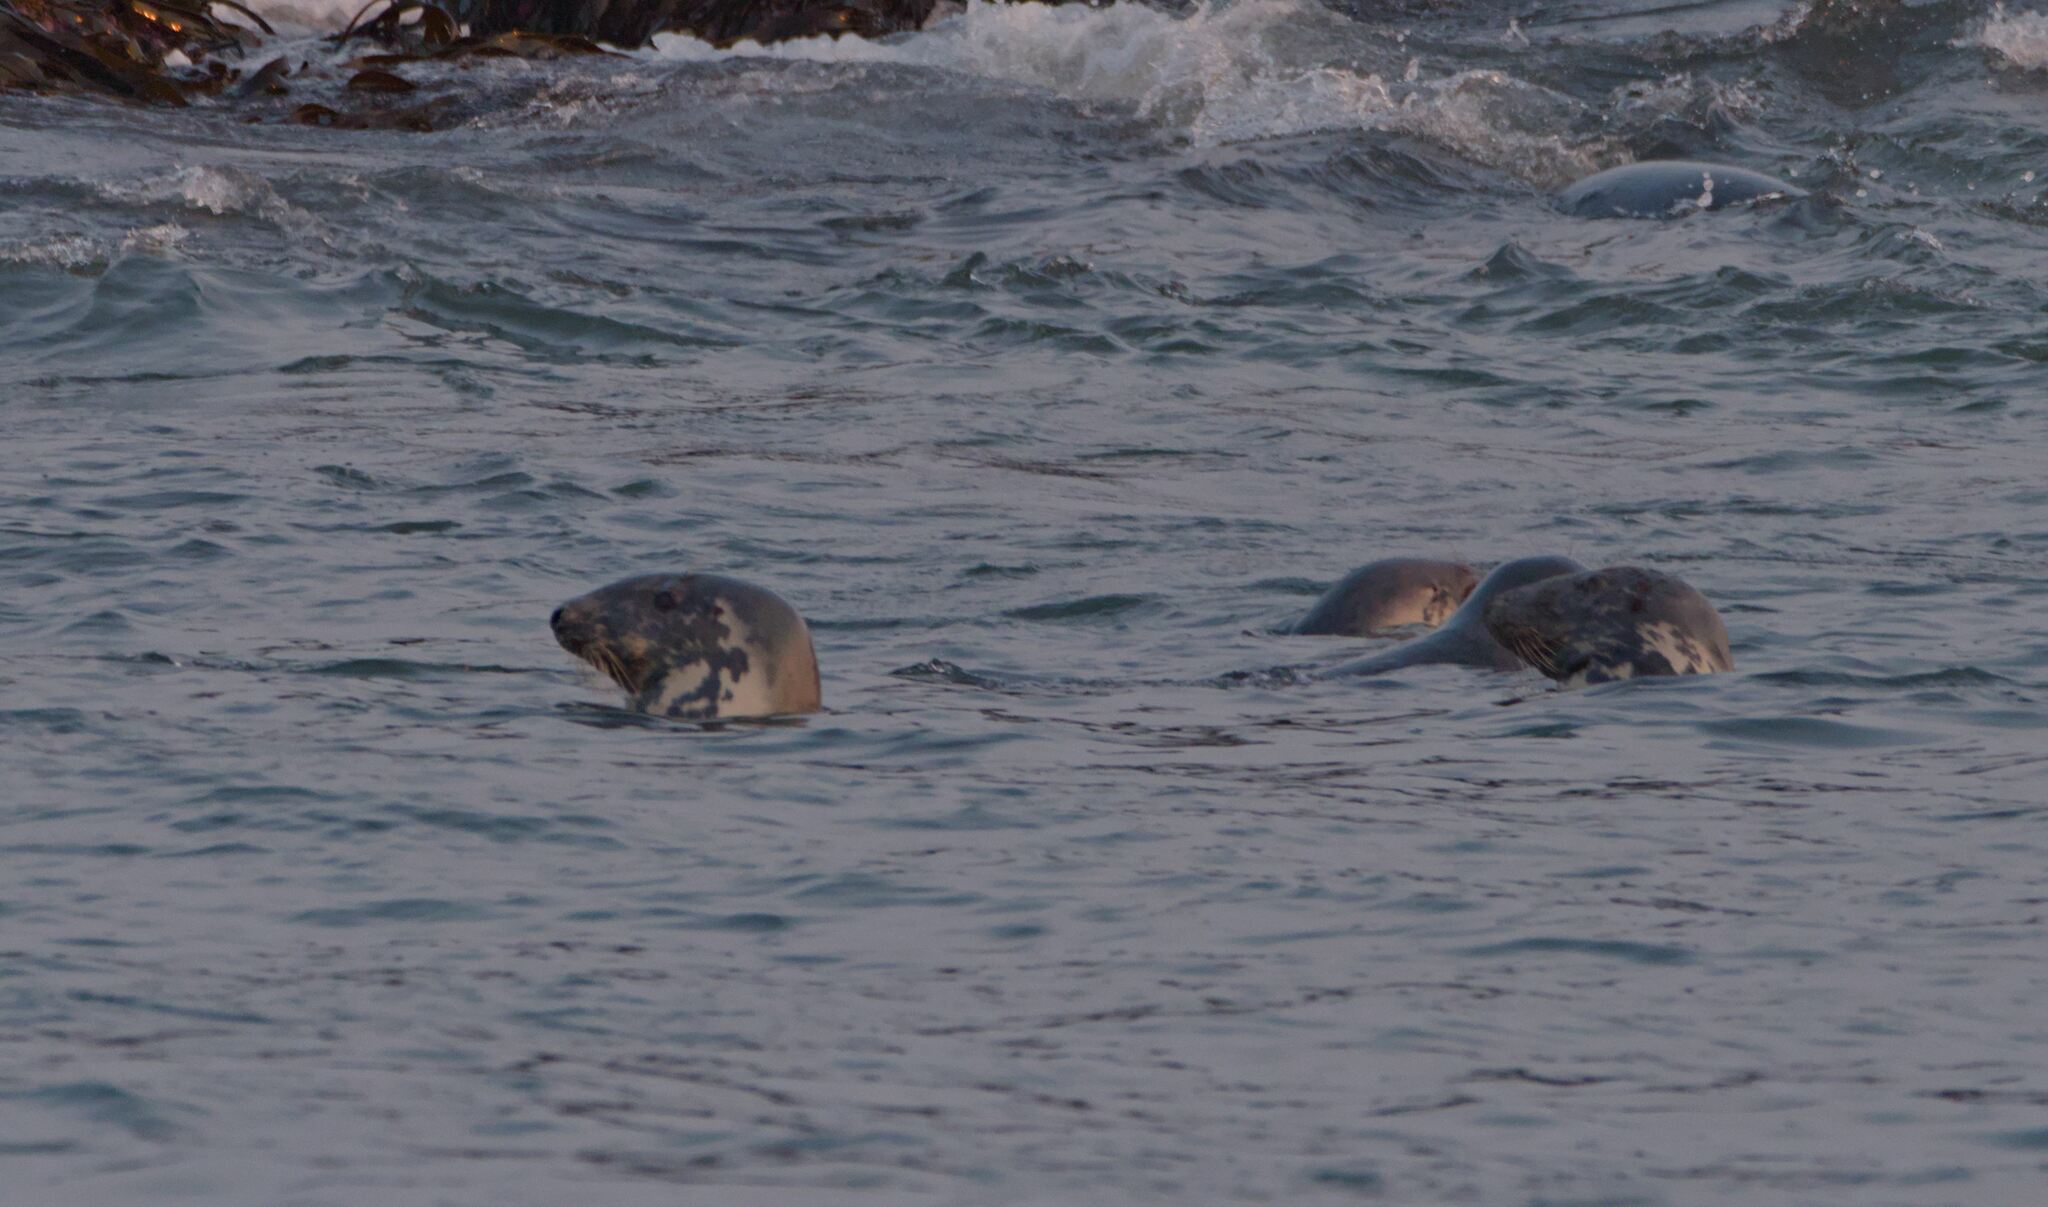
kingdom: Animalia
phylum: Chordata
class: Mammalia
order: Carnivora
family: Phocidae
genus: Halichoerus
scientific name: Halichoerus grypus
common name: Grey seal
